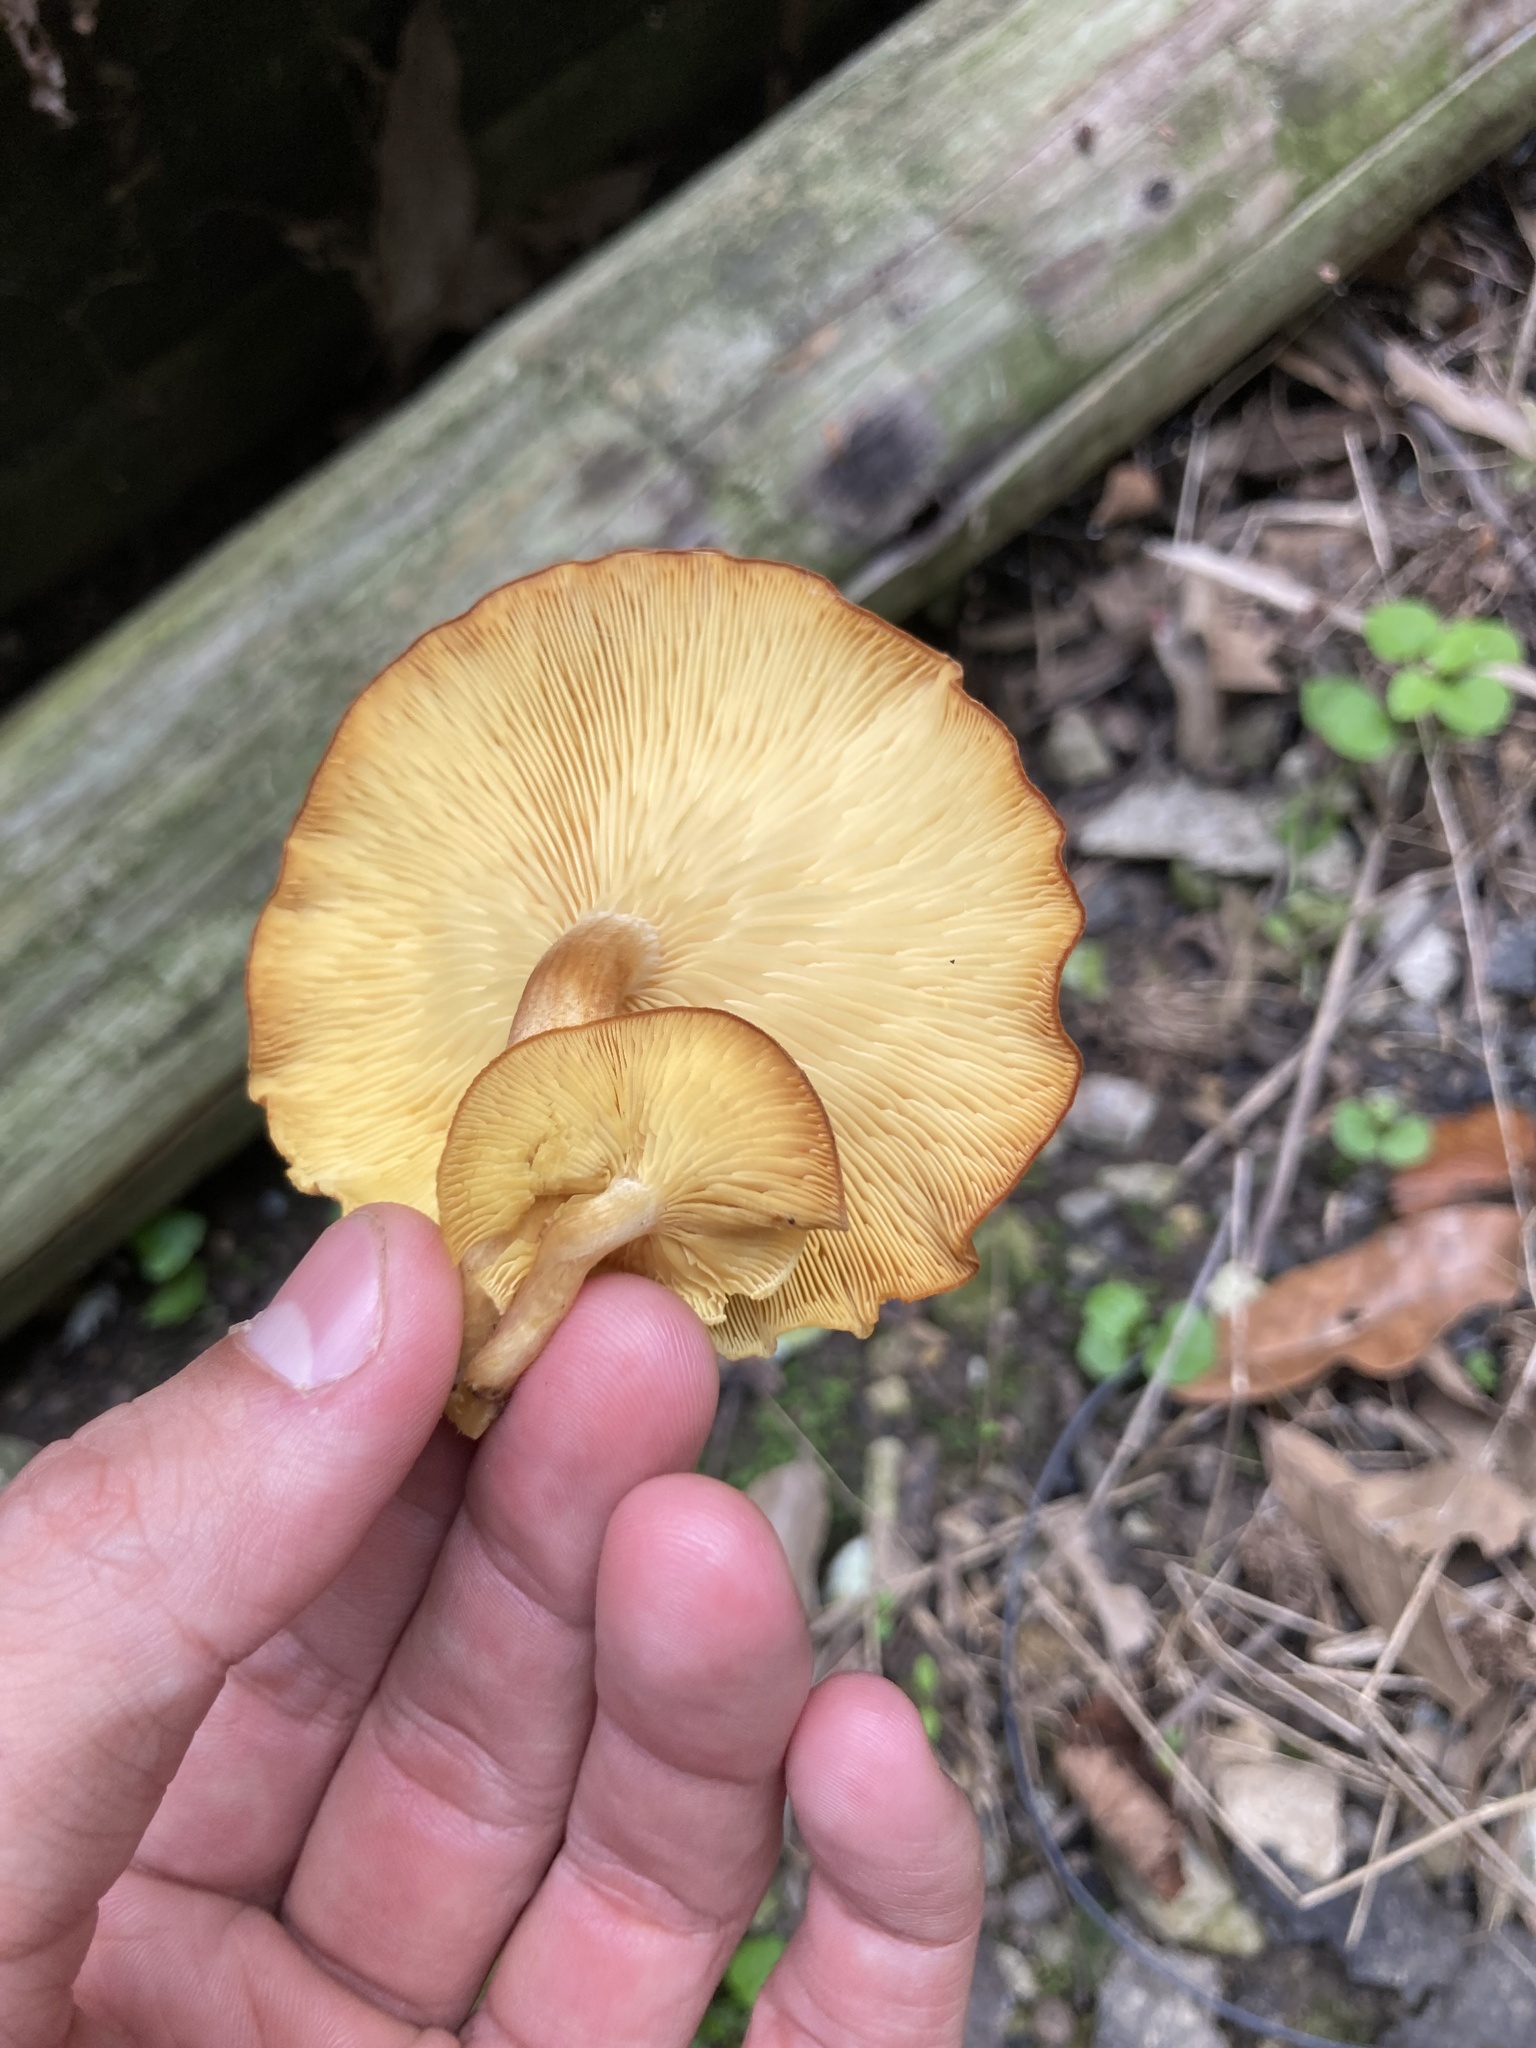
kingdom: Fungi
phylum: Basidiomycota
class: Agaricomycetes
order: Agaricales
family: Tricholomataceae
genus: Tricholomopsis
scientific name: Tricholomopsis rutilans
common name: Plums and custard
